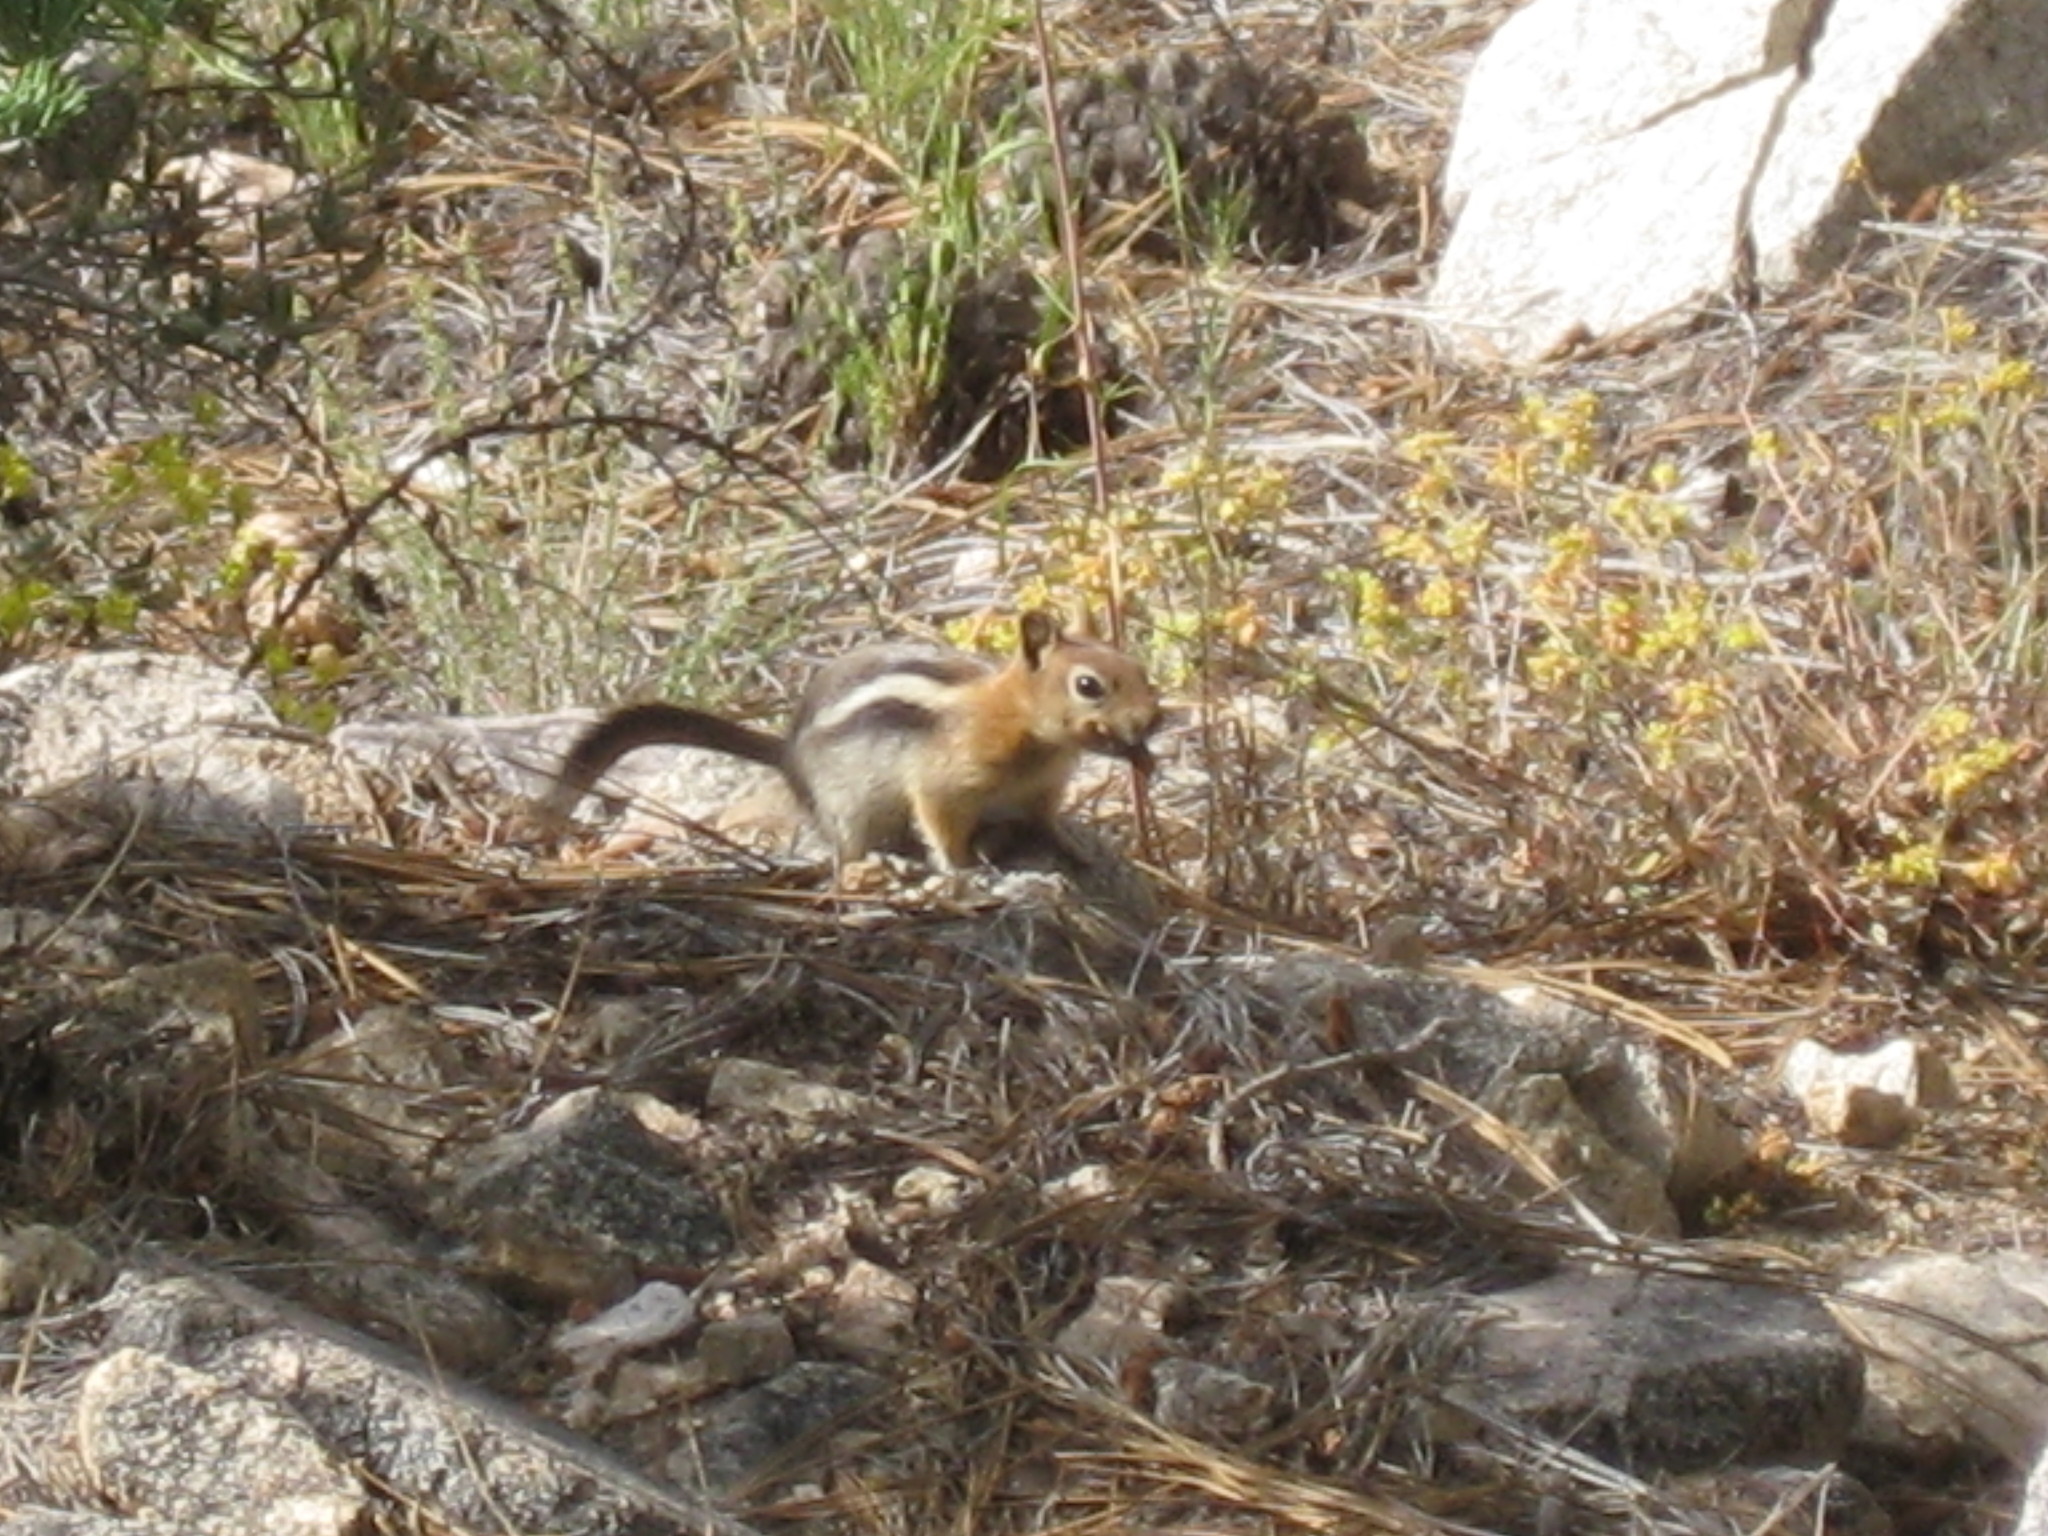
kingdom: Animalia
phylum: Chordata
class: Mammalia
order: Rodentia
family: Sciuridae
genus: Callospermophilus
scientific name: Callospermophilus lateralis
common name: Golden-mantled ground squirrel
